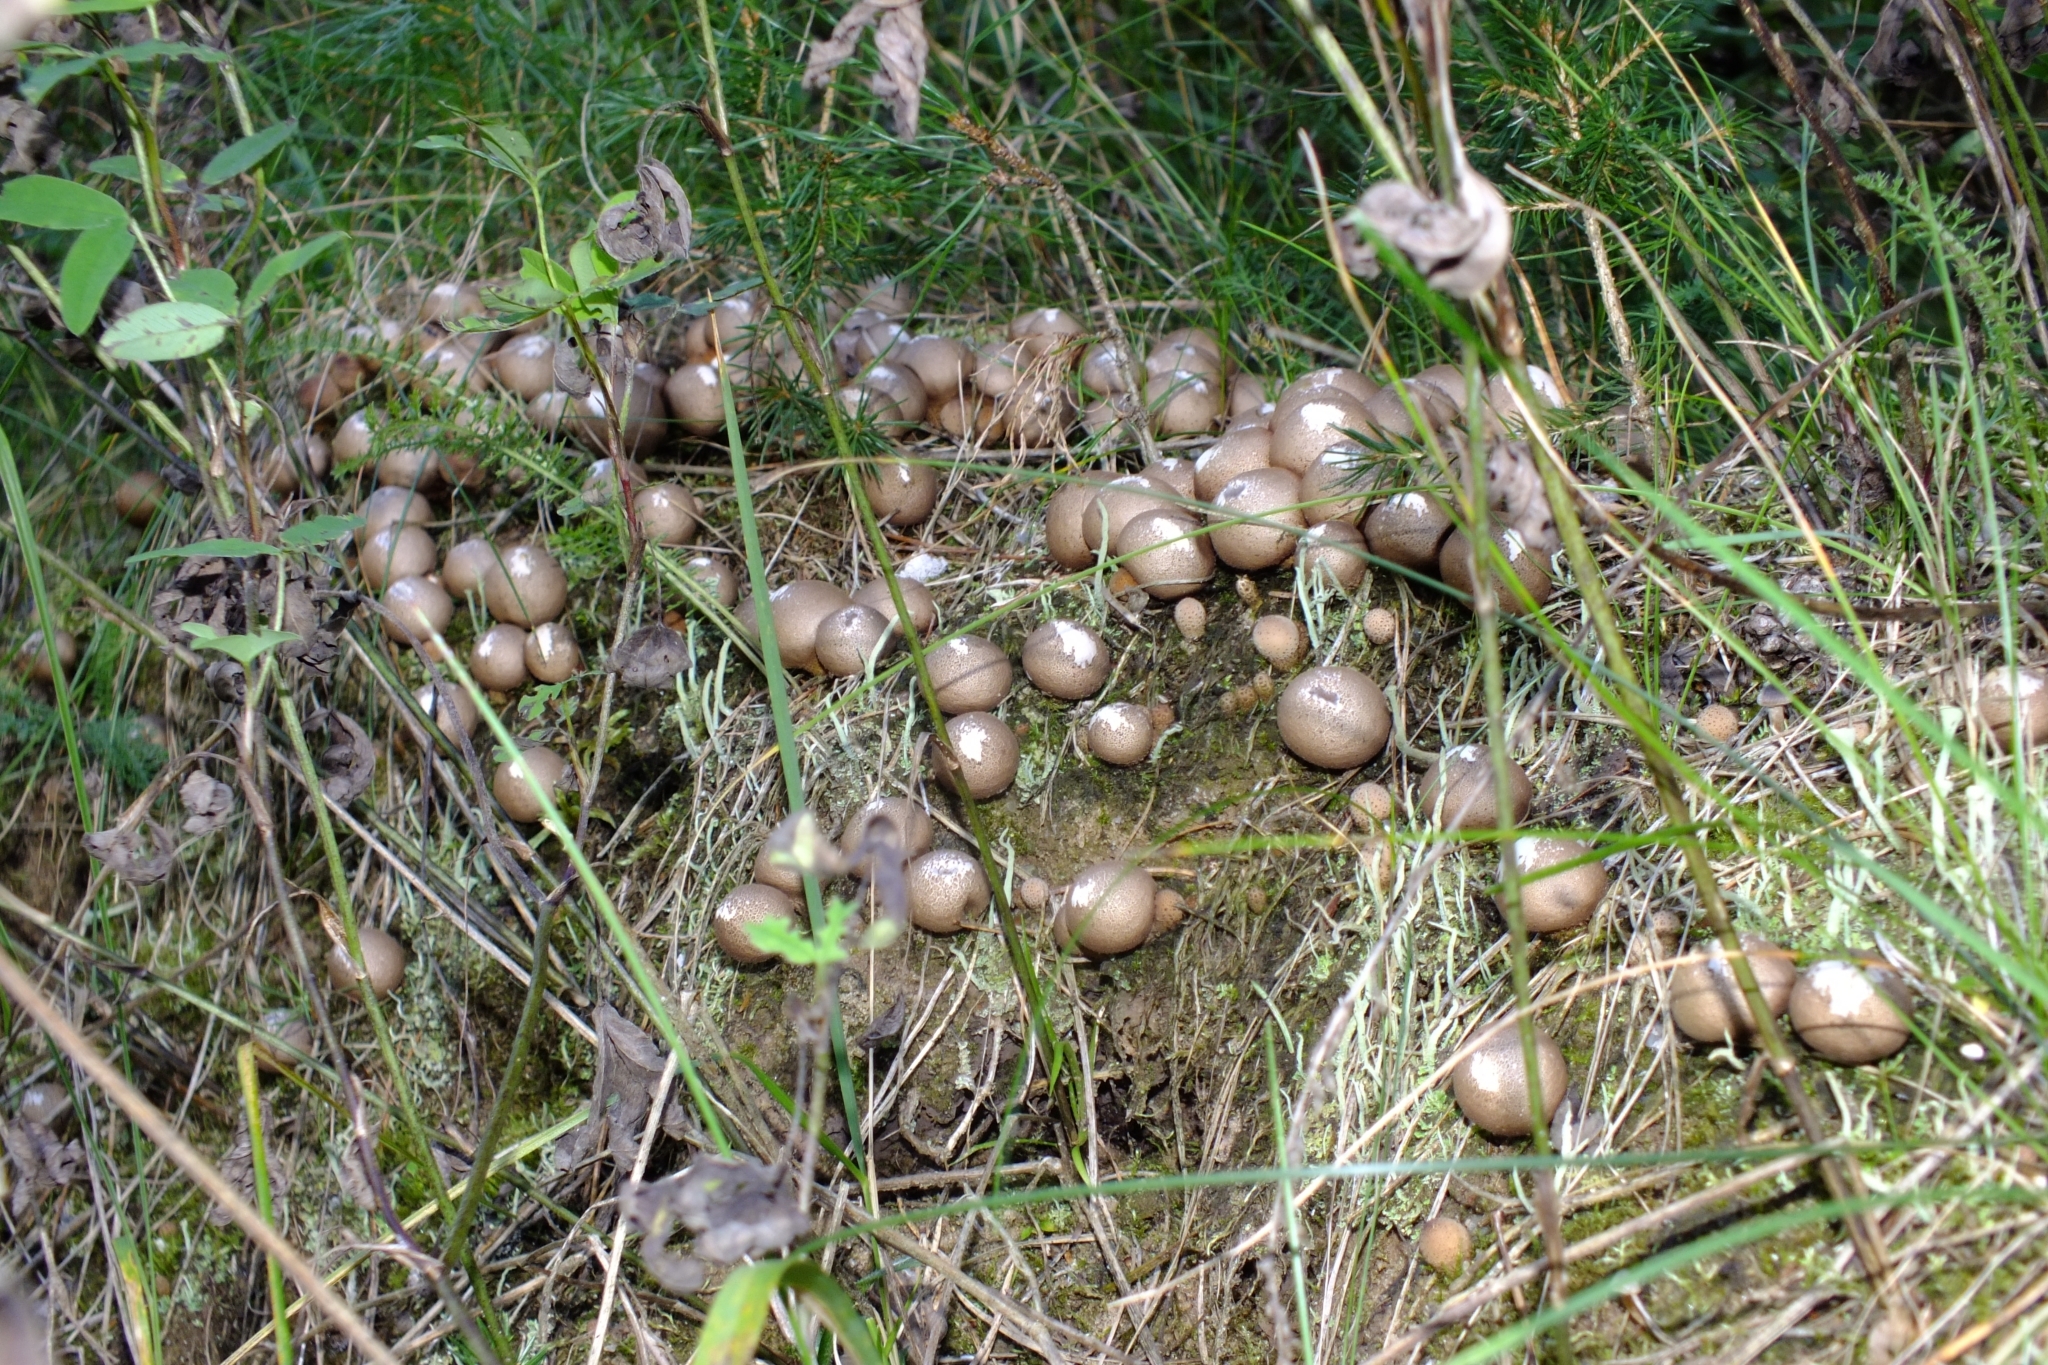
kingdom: Fungi
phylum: Basidiomycota
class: Agaricomycetes
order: Agaricales
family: Lycoperdaceae
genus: Apioperdon
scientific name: Apioperdon pyriforme
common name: Pear-shaped puffball
